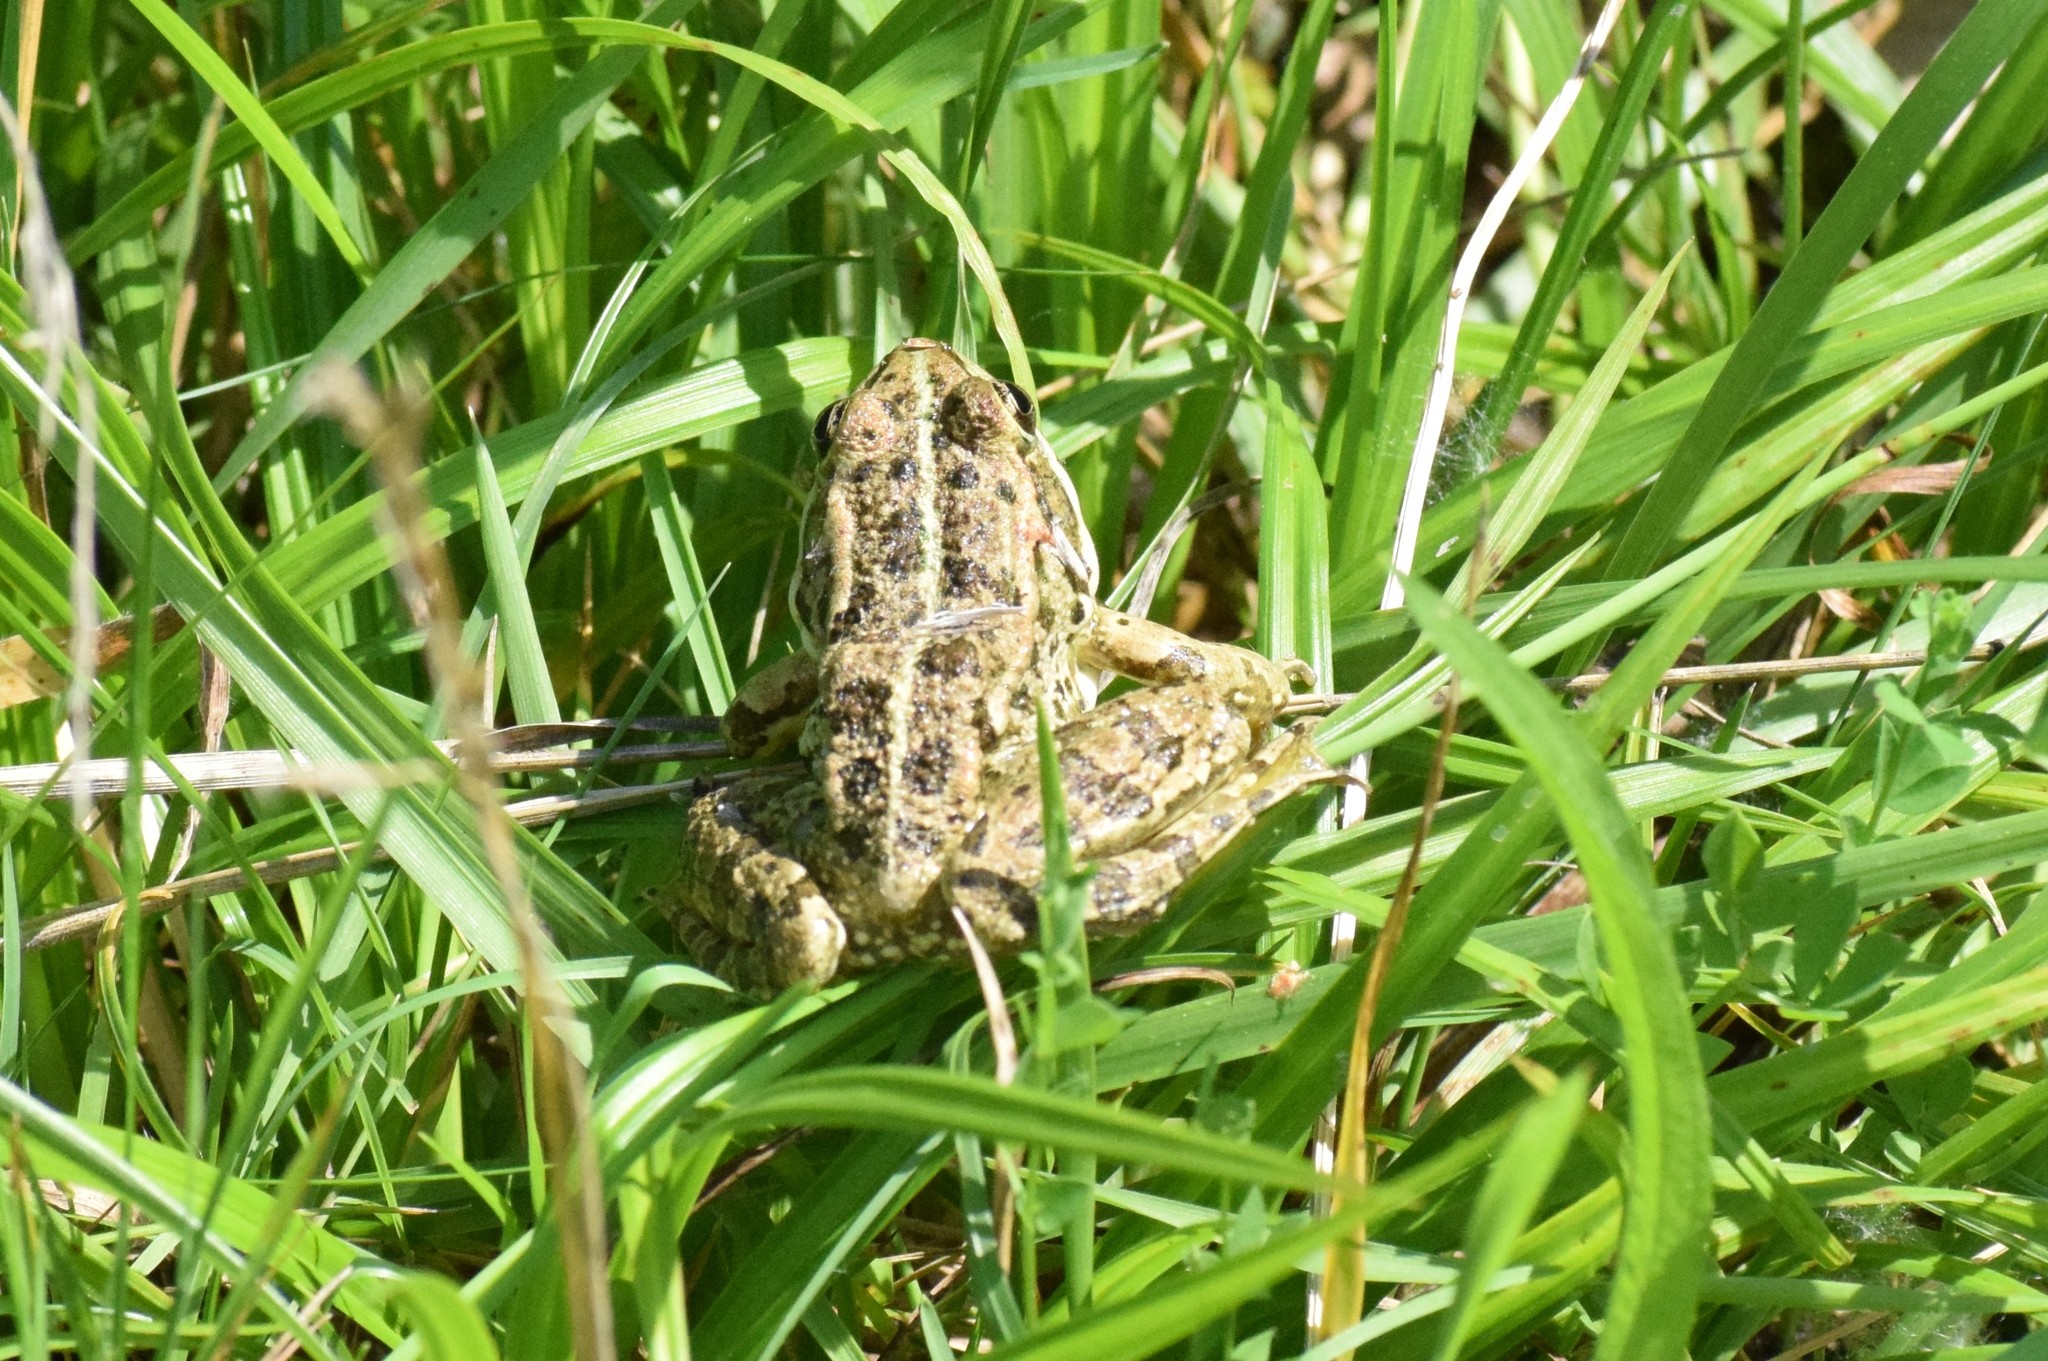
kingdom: Animalia
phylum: Chordata
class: Amphibia
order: Anura
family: Ranidae
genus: Pelophylax
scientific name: Pelophylax
